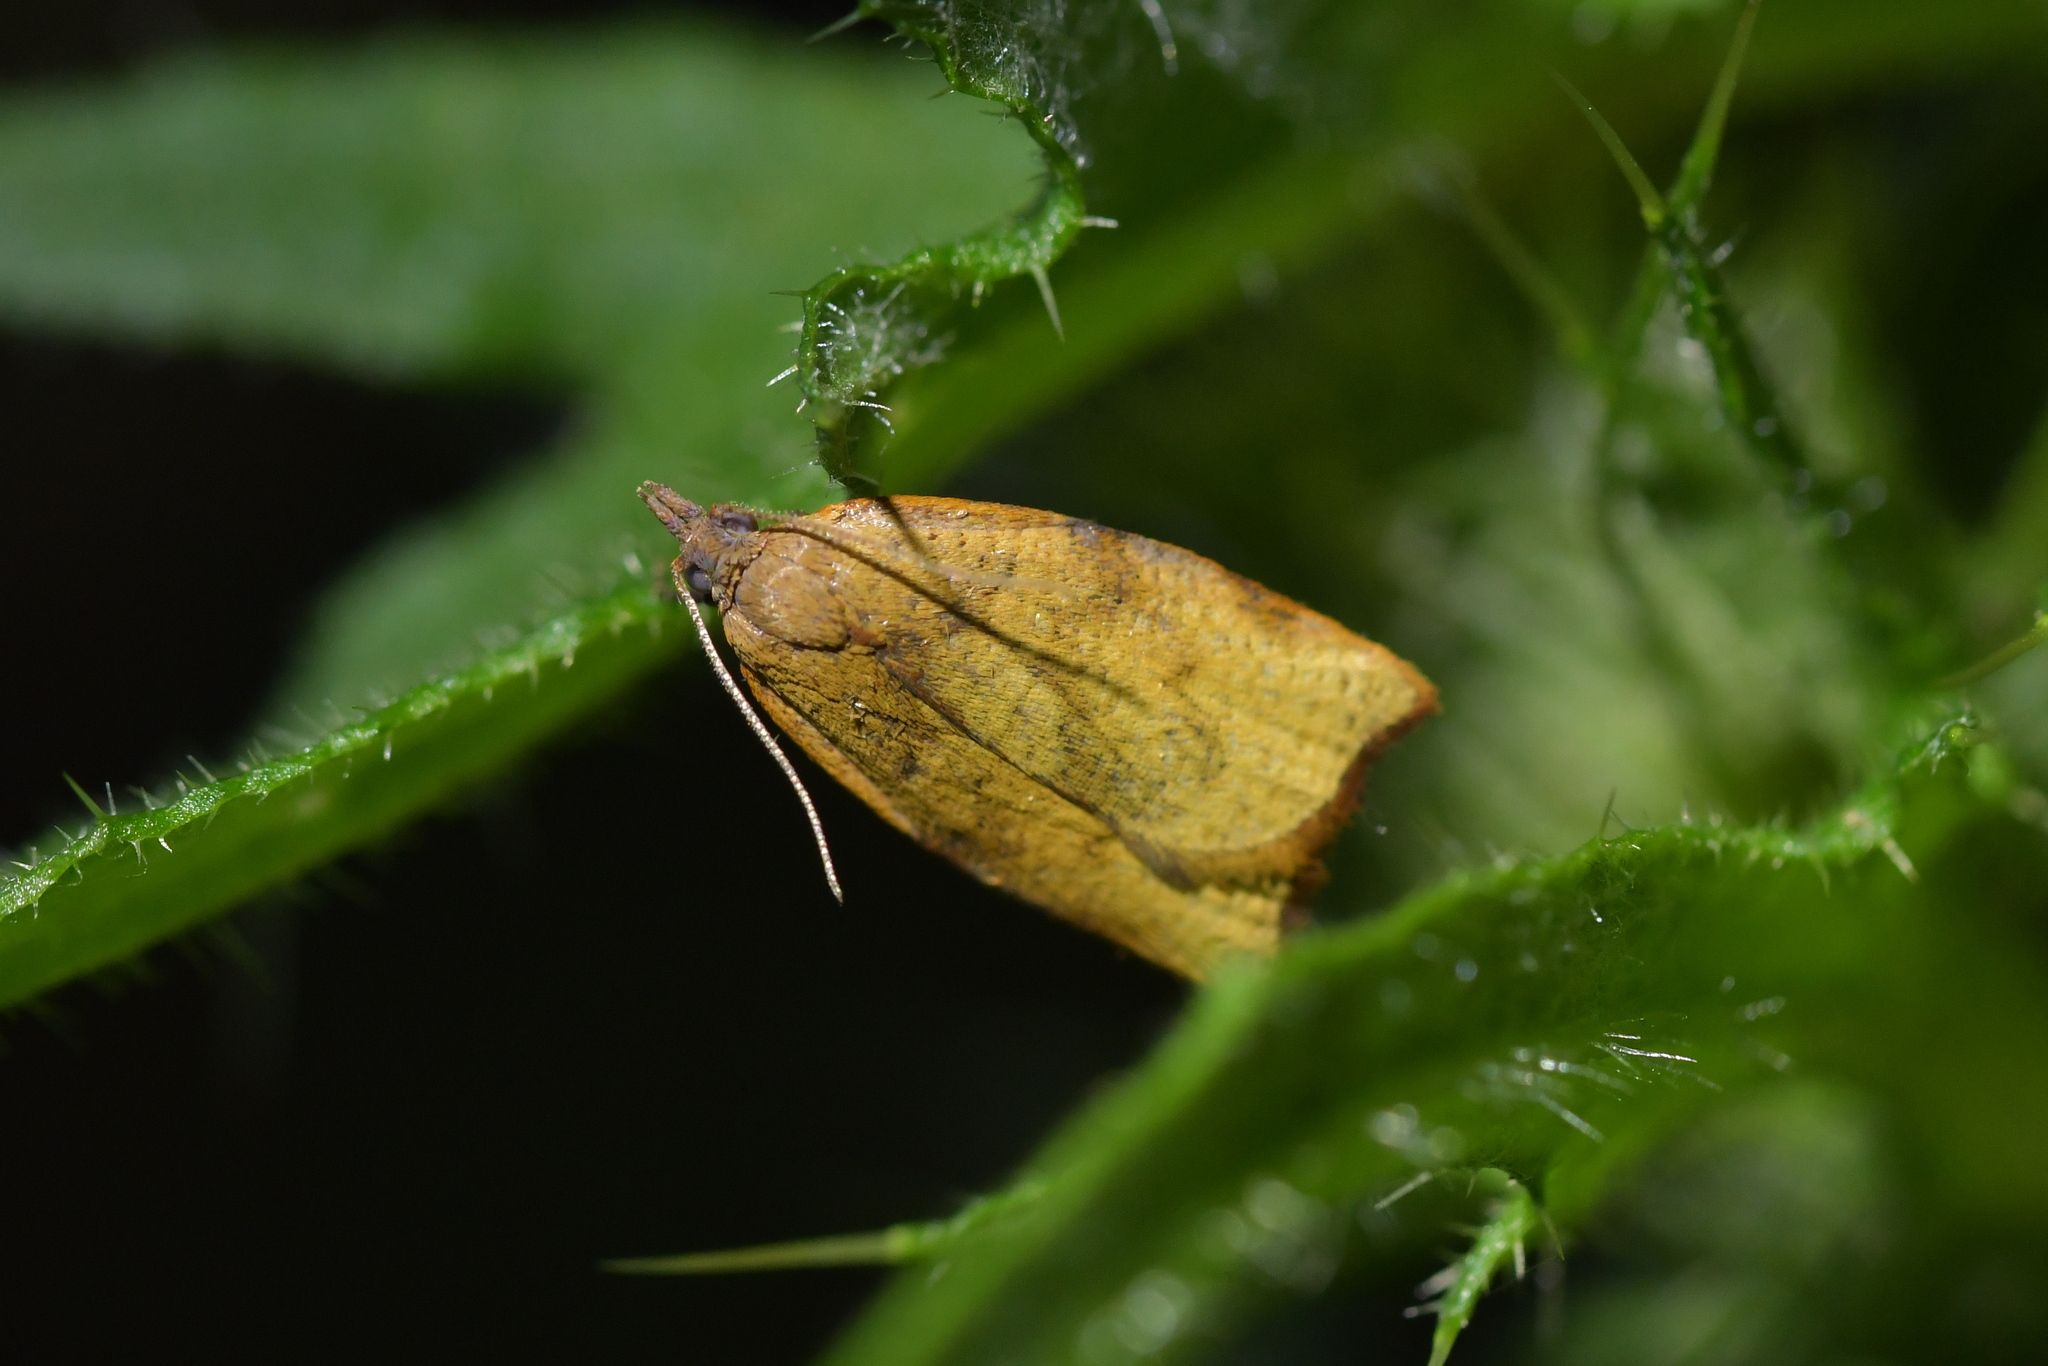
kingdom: Animalia
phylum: Arthropoda
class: Insecta
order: Lepidoptera
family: Tortricidae
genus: Apoctena
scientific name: Apoctena flavescens
